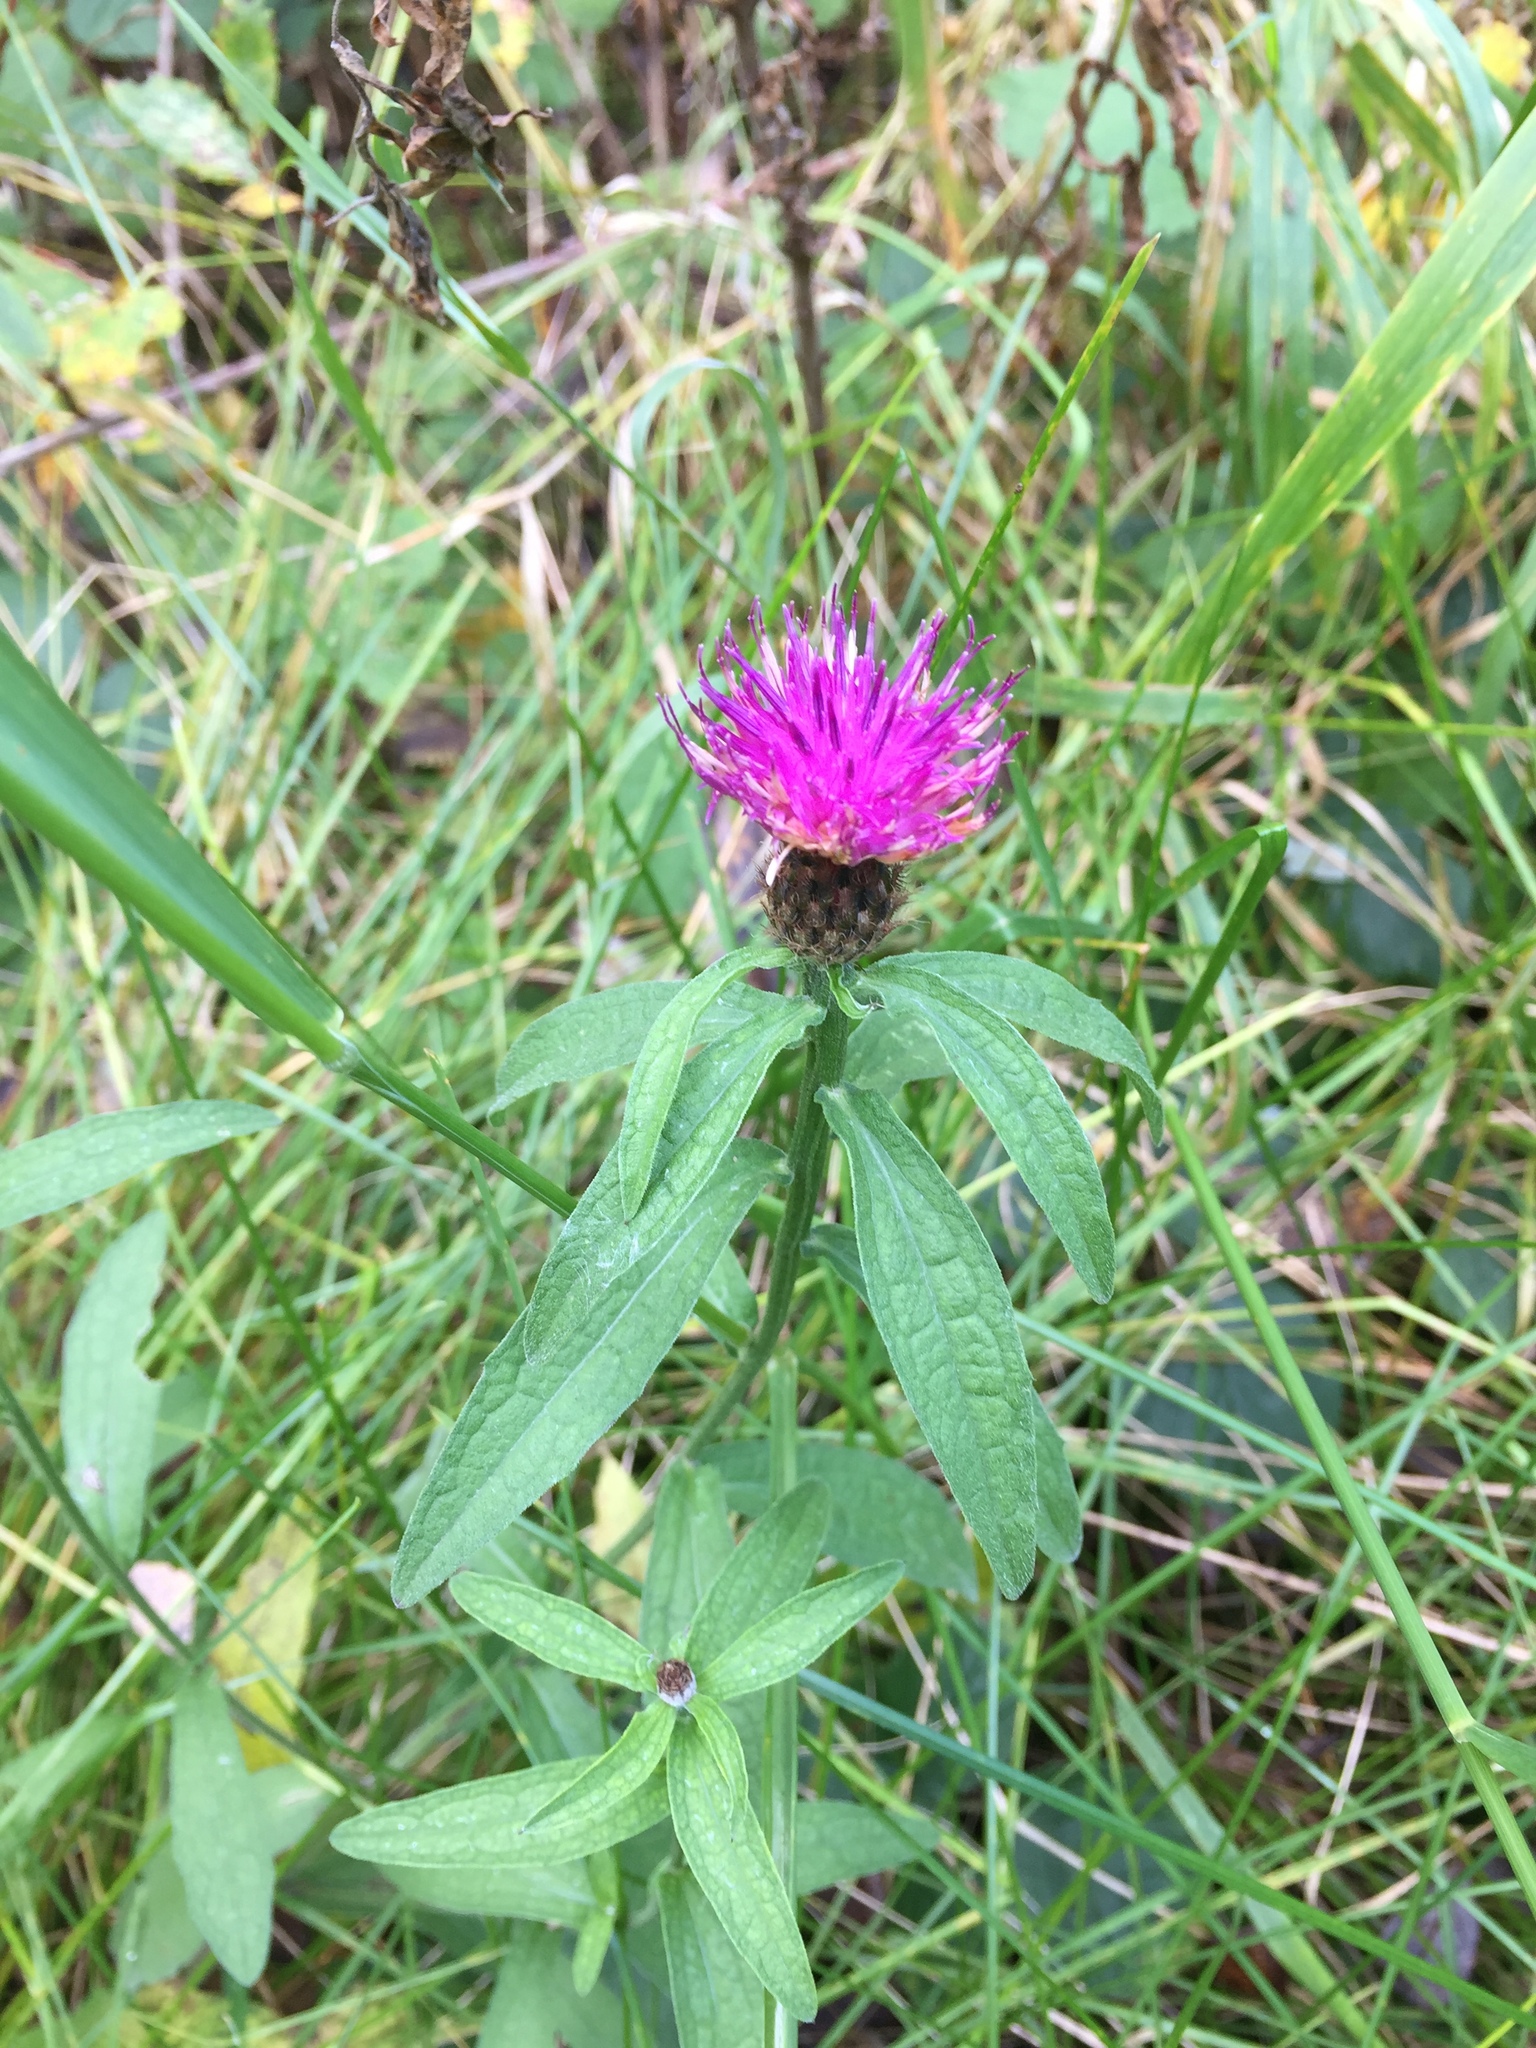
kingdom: Plantae
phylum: Tracheophyta
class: Magnoliopsida
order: Asterales
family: Asteraceae
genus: Centaurea
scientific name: Centaurea nigra
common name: Lesser knapweed
